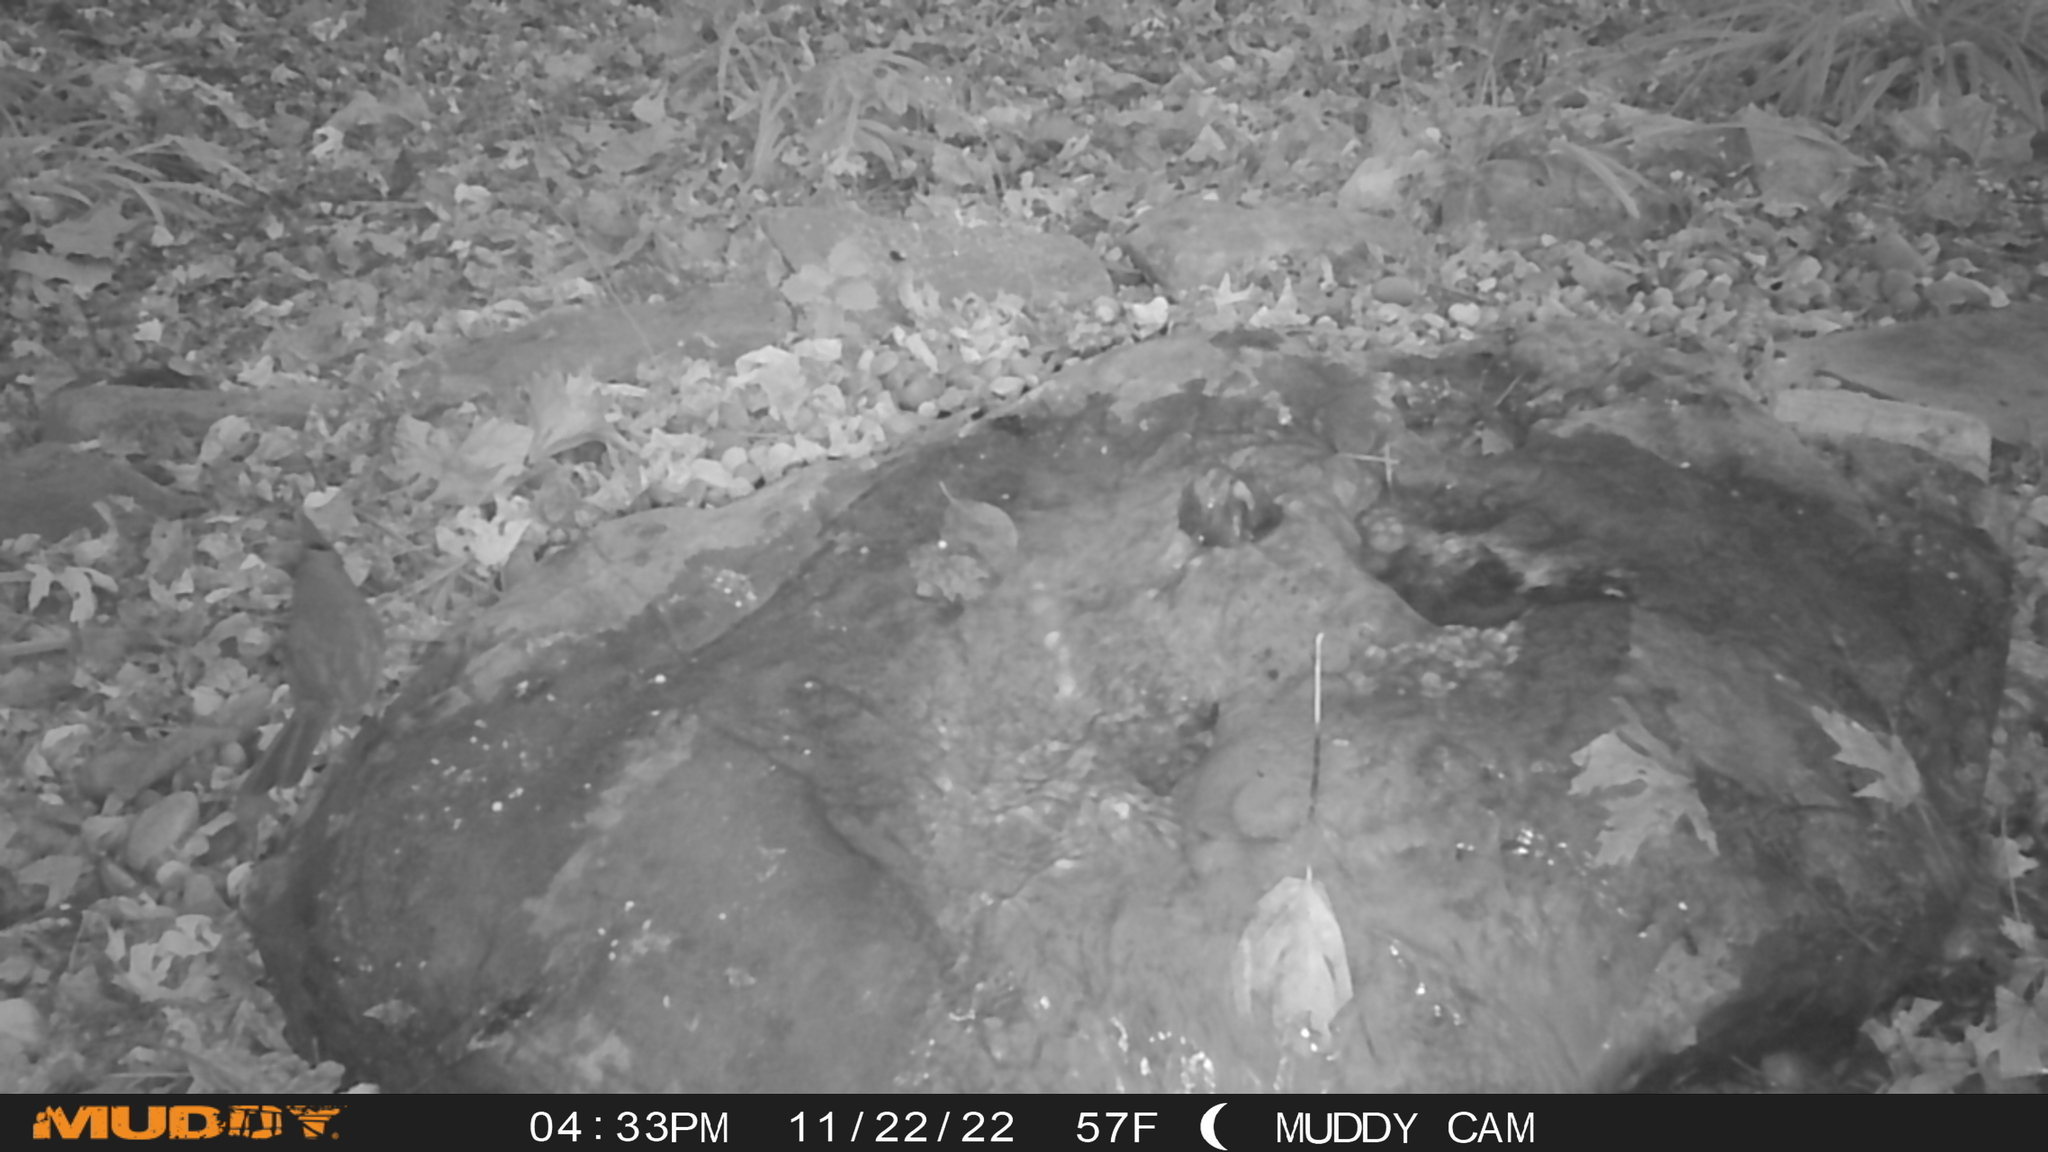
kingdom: Animalia
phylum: Chordata
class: Aves
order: Passeriformes
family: Cardinalidae
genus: Cardinalis
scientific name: Cardinalis cardinalis
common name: Northern cardinal
